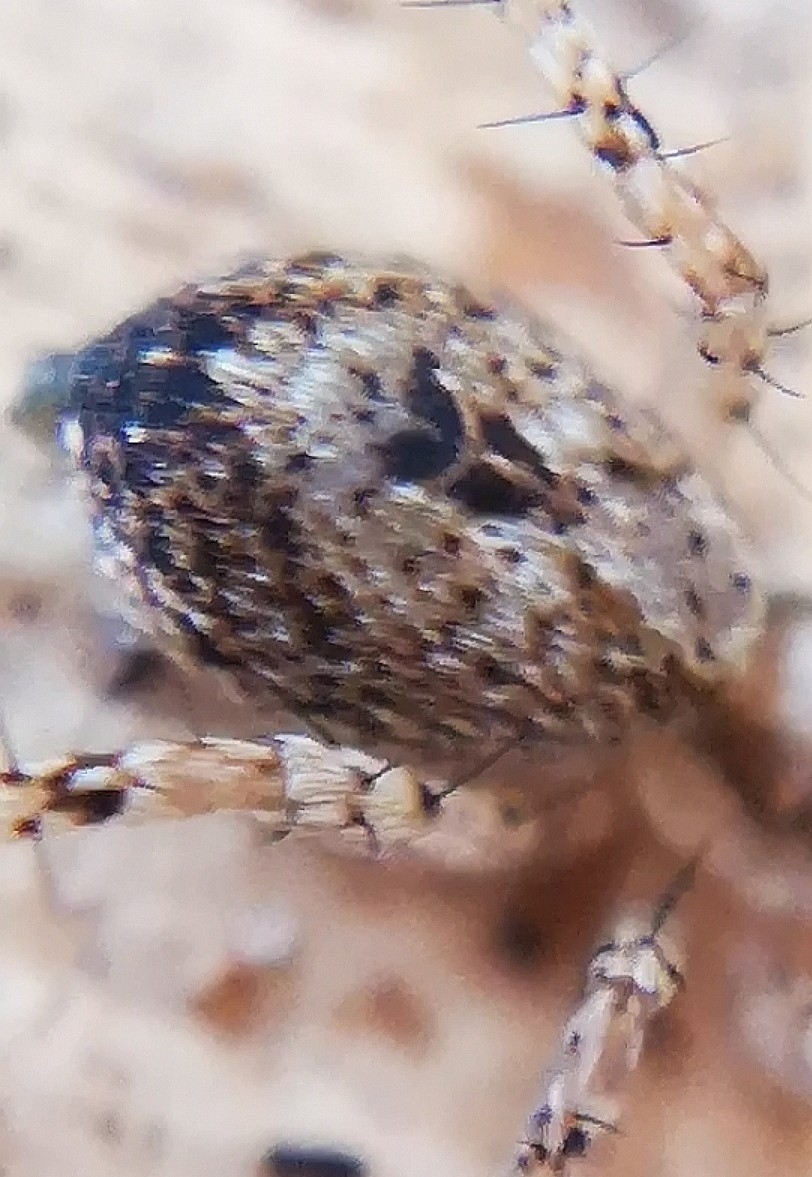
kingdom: Animalia
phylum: Arthropoda
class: Arachnida
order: Araneae
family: Anyphaenidae
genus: Anyphaena
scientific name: Anyphaena accentuata
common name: Buzzing spider
